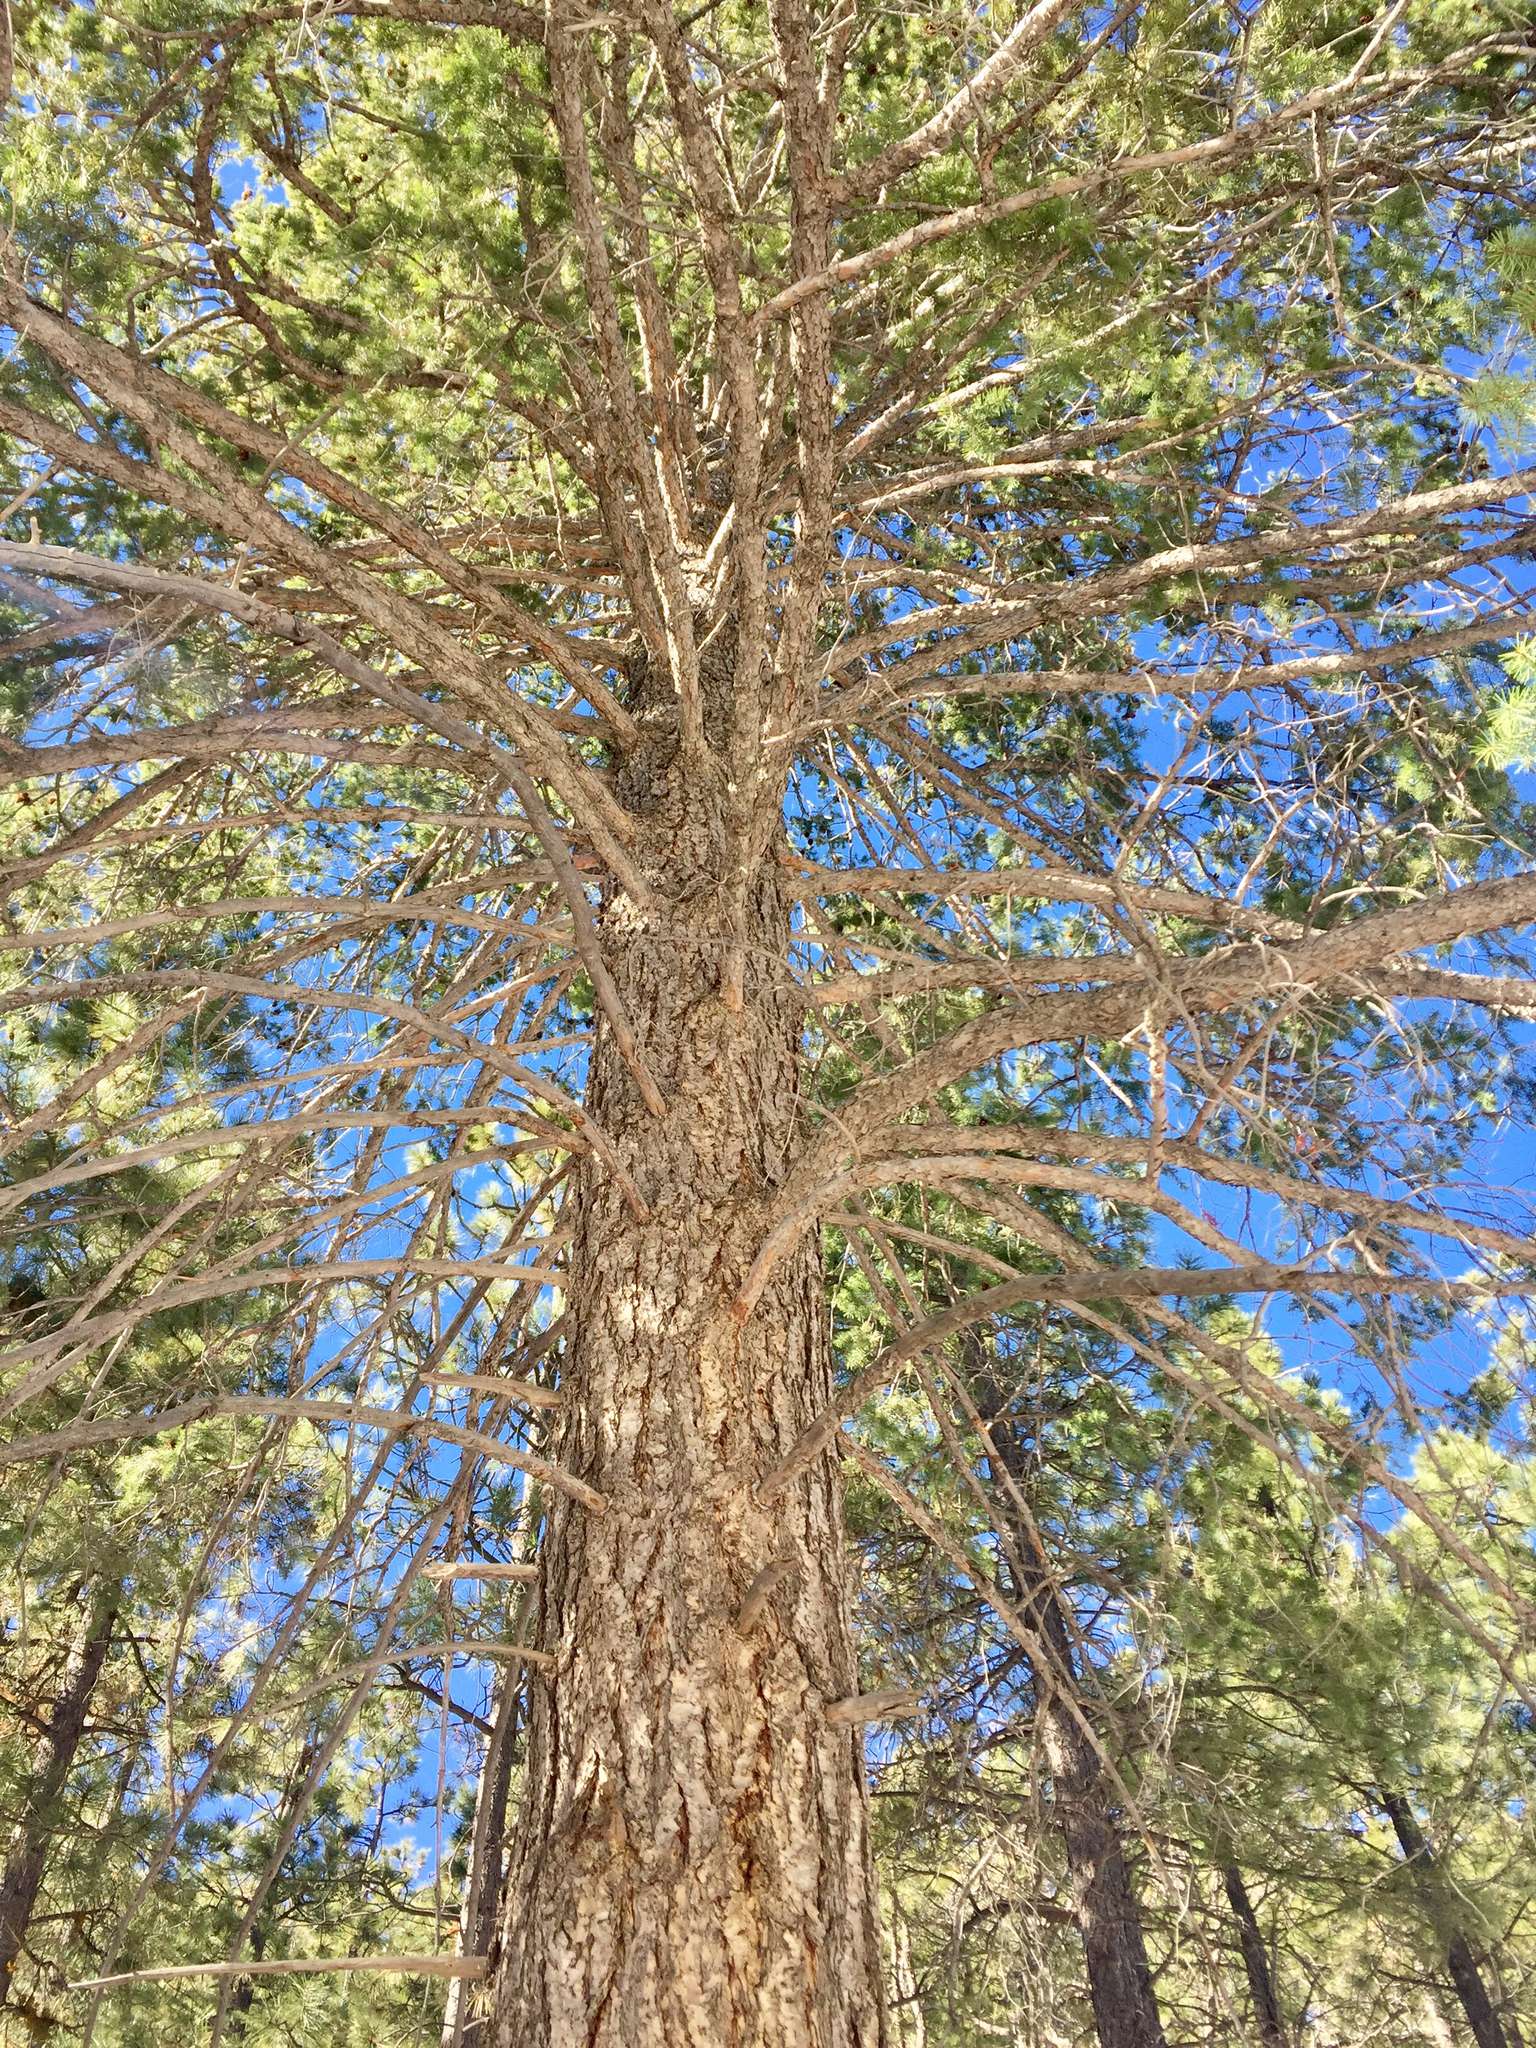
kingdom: Plantae
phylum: Tracheophyta
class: Pinopsida
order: Pinales
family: Pinaceae
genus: Pseudotsuga
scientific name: Pseudotsuga menziesii
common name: Douglas fir
